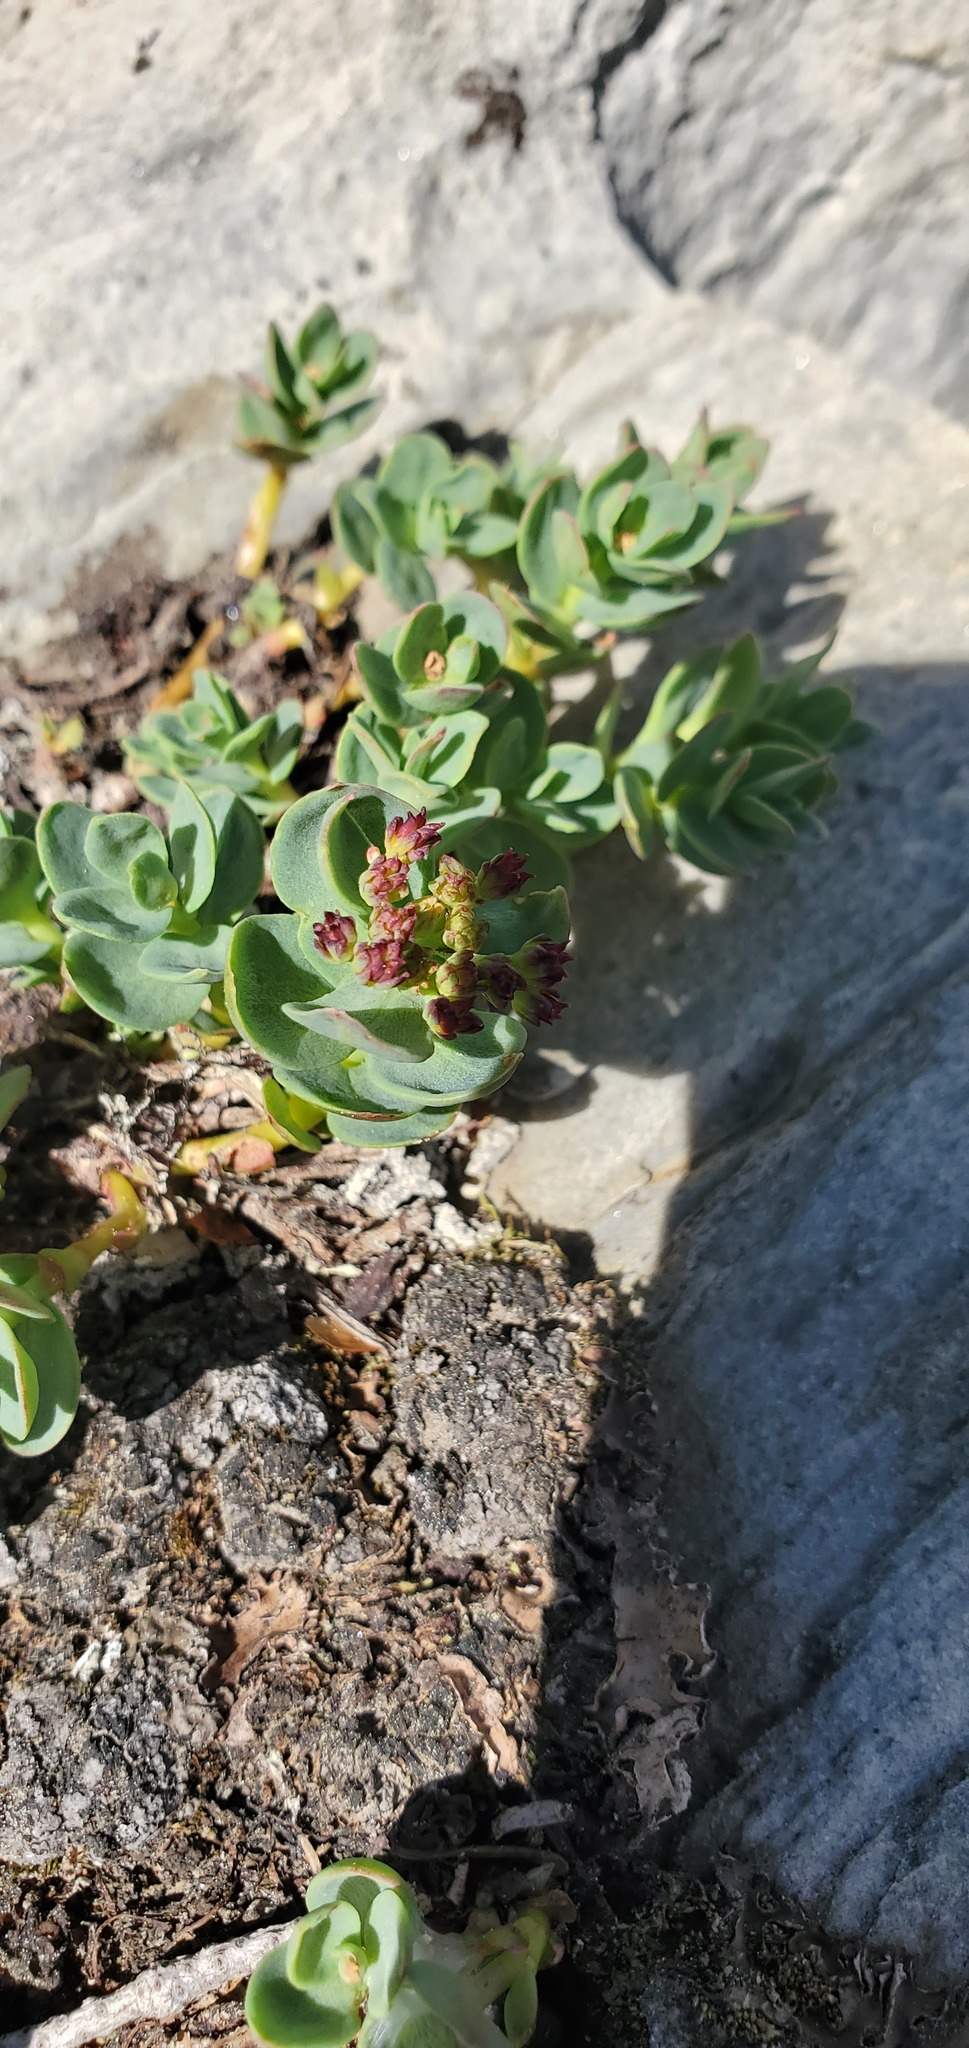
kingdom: Plantae
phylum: Tracheophyta
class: Magnoliopsida
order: Saxifragales
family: Crassulaceae
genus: Rhodiola
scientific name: Rhodiola integrifolia
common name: Western roseroot
